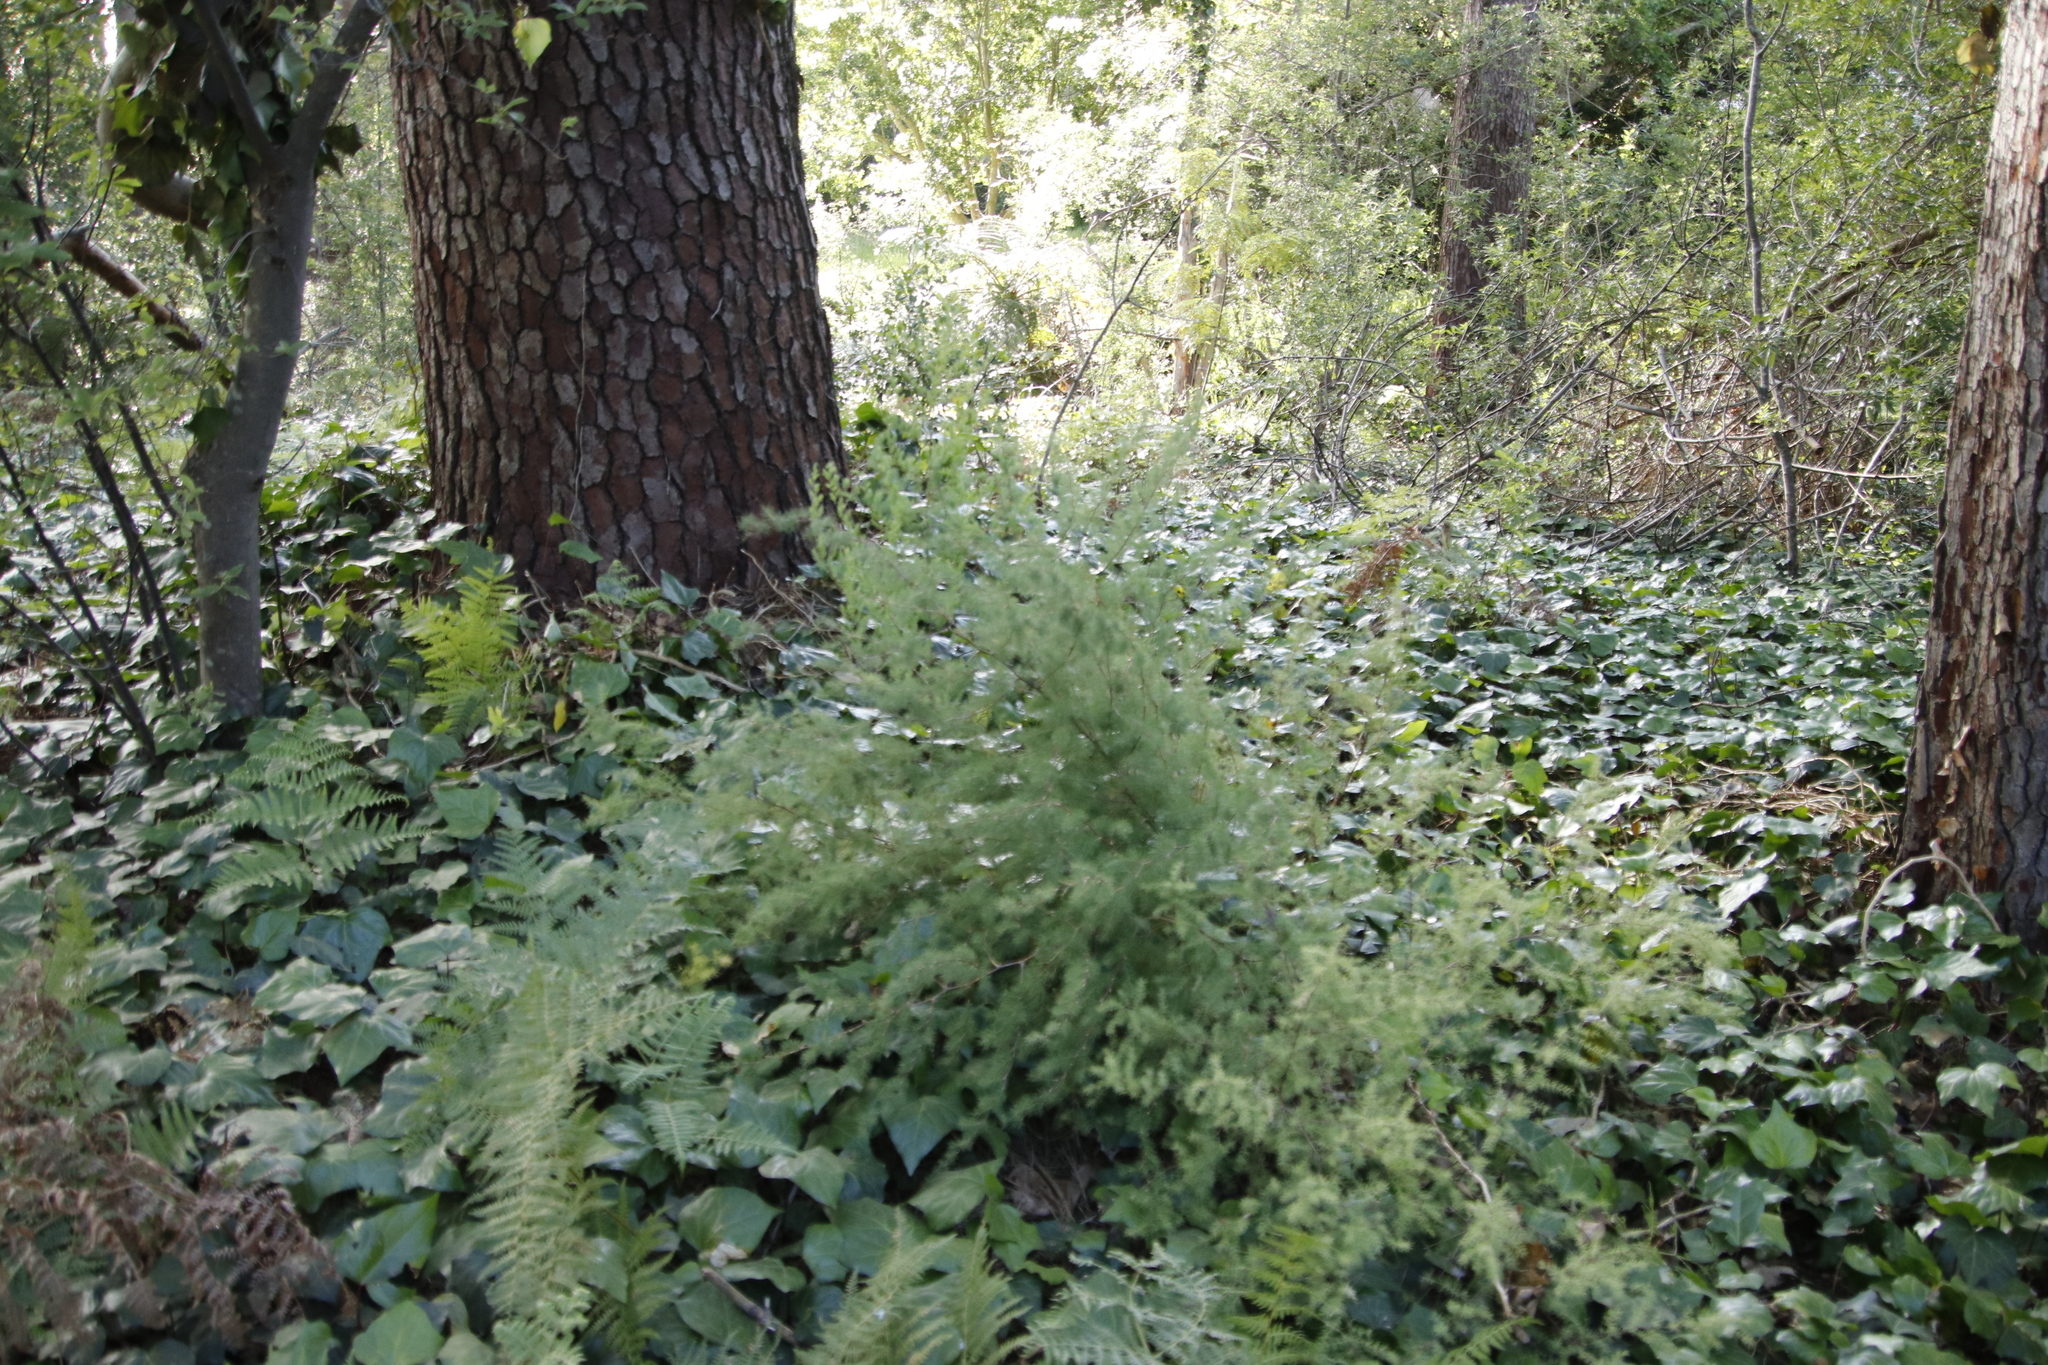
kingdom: Plantae
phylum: Tracheophyta
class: Liliopsida
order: Asparagales
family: Asparagaceae
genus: Asparagus
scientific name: Asparagus rubicundus
